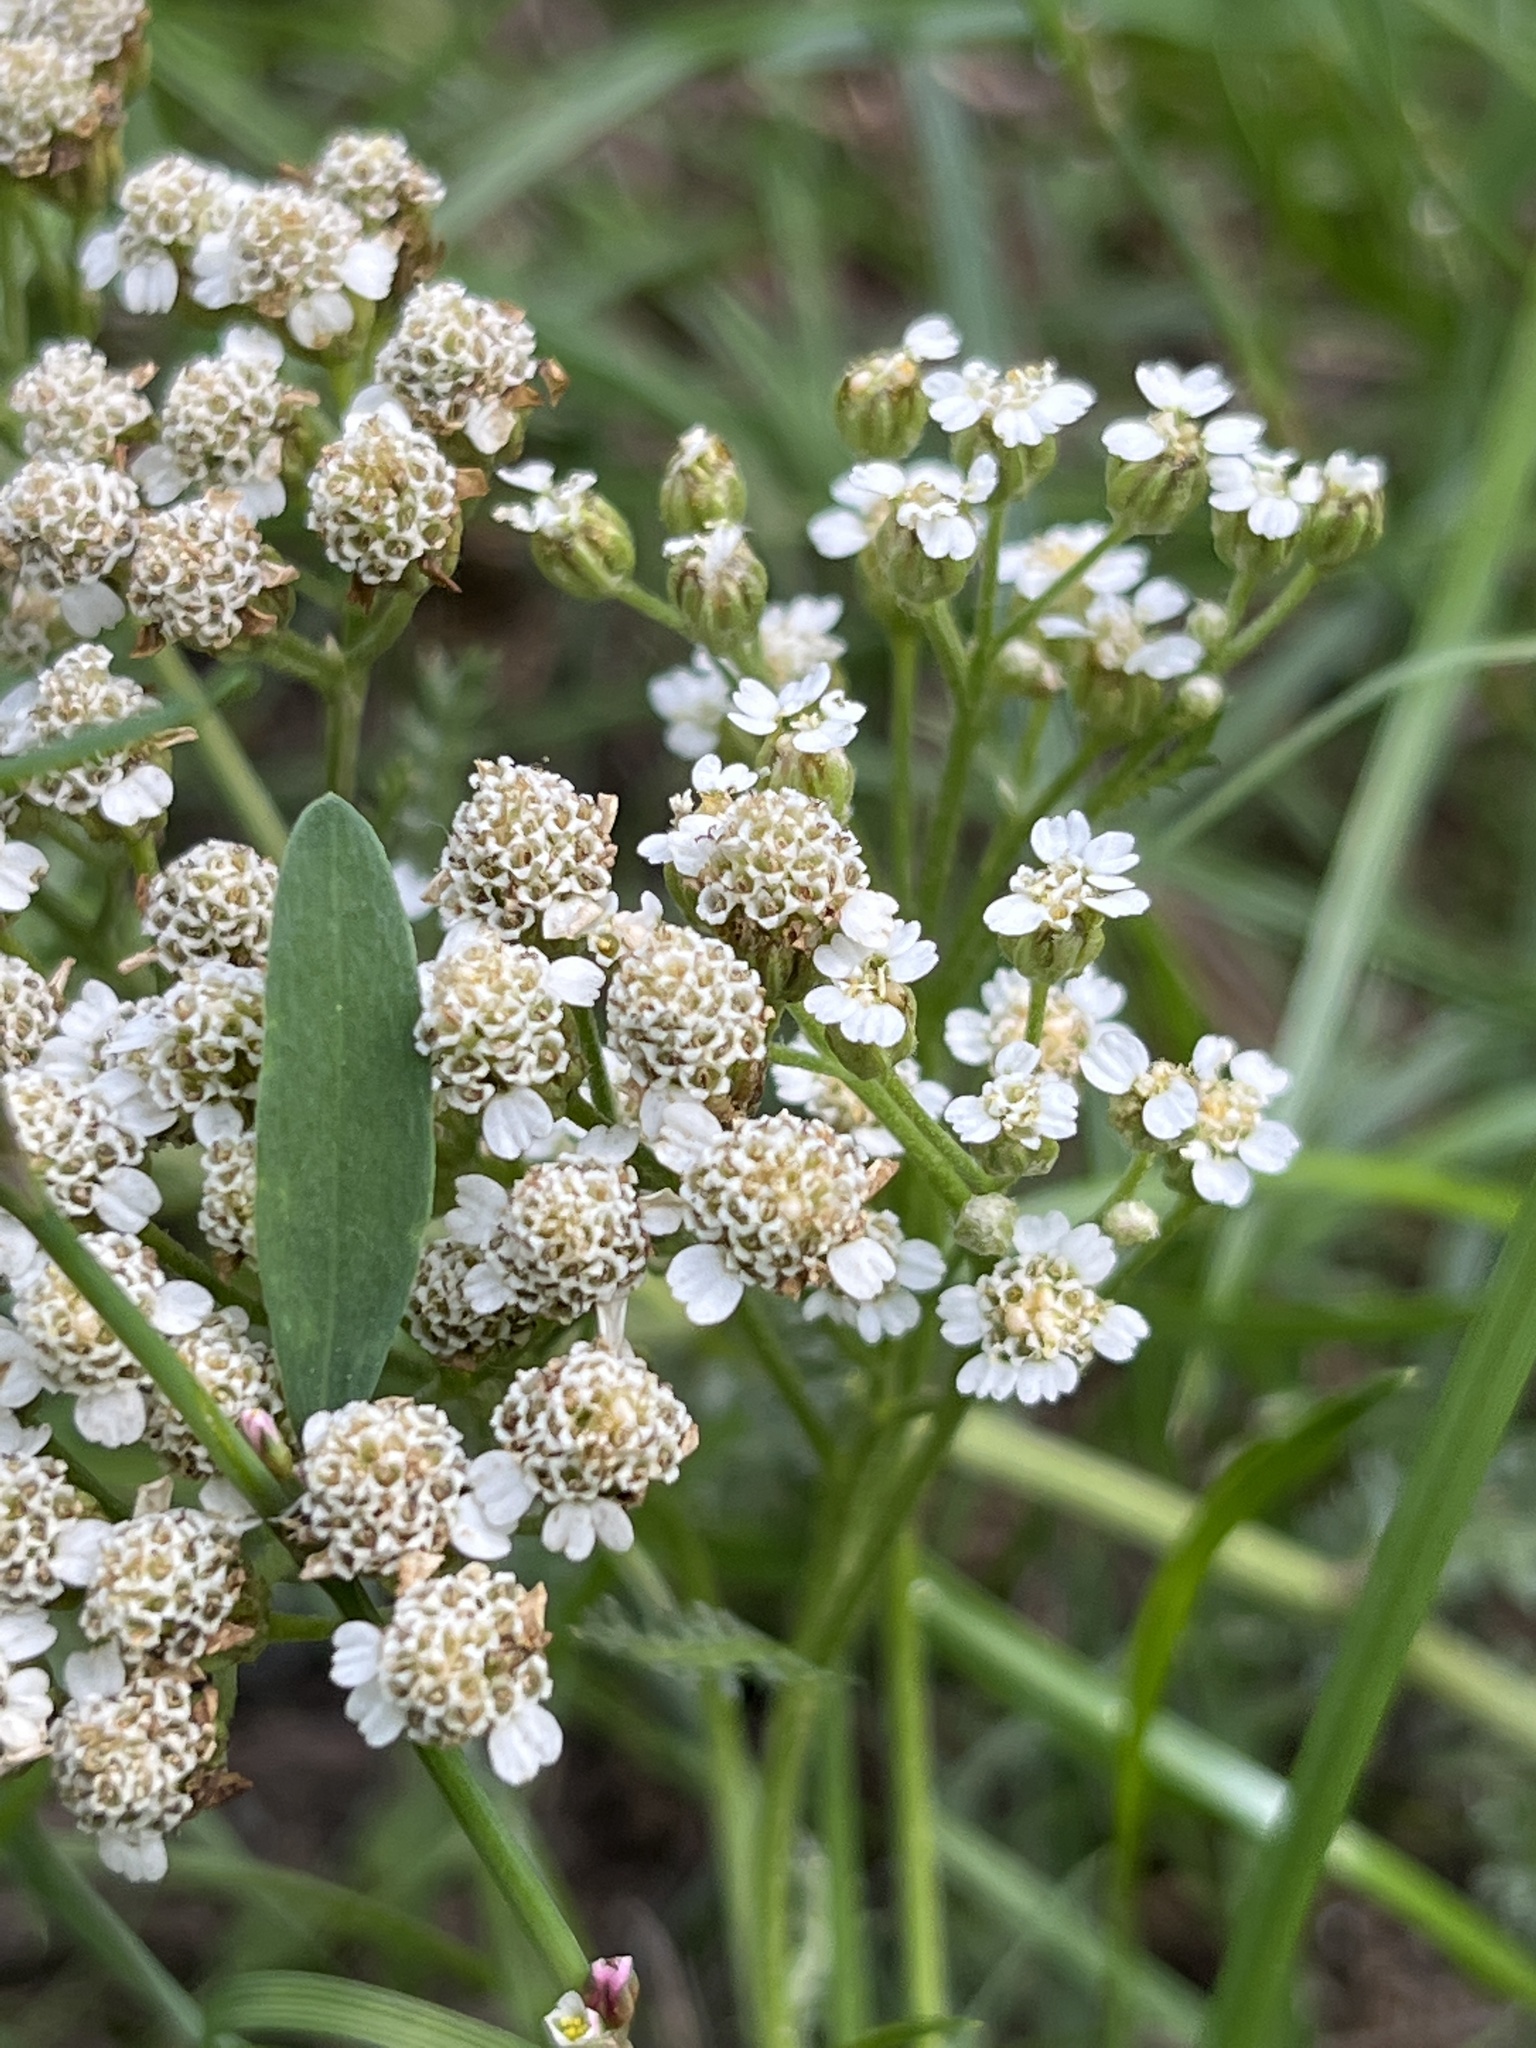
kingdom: Plantae
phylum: Tracheophyta
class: Magnoliopsida
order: Asterales
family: Asteraceae
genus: Achillea
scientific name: Achillea millefolium
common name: Yarrow
